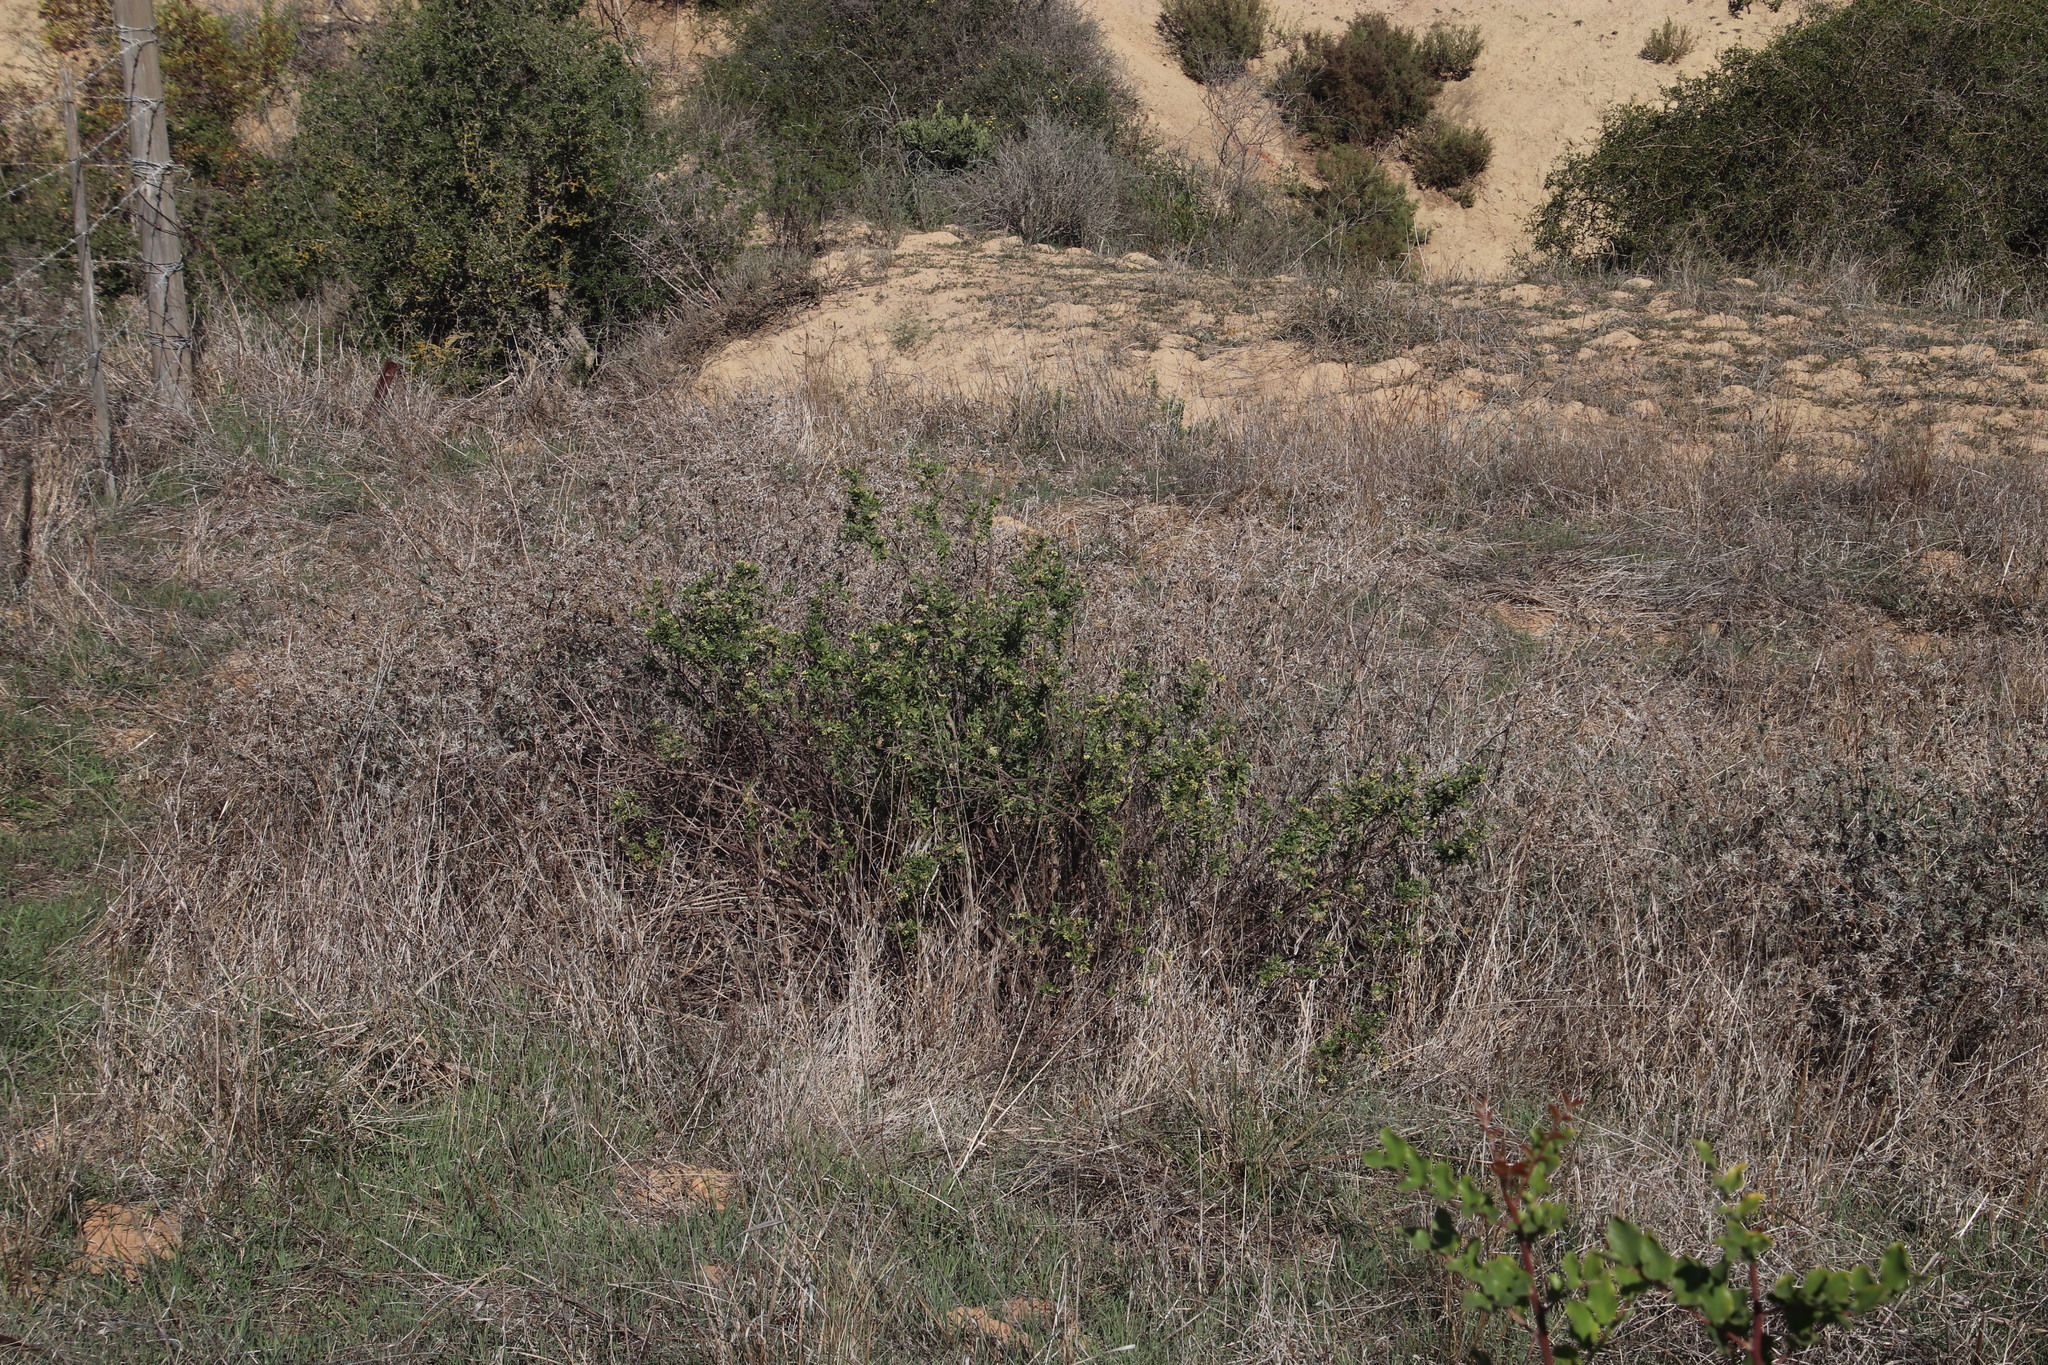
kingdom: Plantae
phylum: Tracheophyta
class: Magnoliopsida
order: Asterales
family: Asteraceae
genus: Nidorella
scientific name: Nidorella ivifolia
